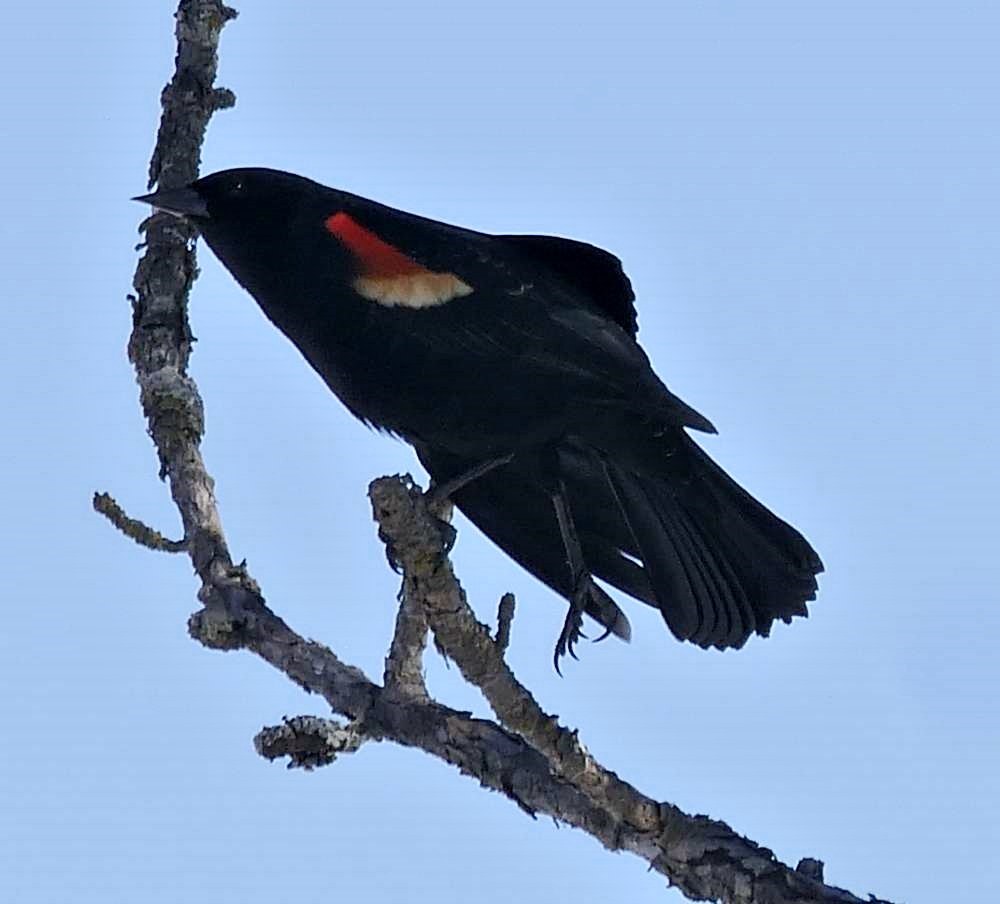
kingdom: Animalia
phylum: Chordata
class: Aves
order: Passeriformes
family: Icteridae
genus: Agelaius
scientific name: Agelaius phoeniceus
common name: Red-winged blackbird
